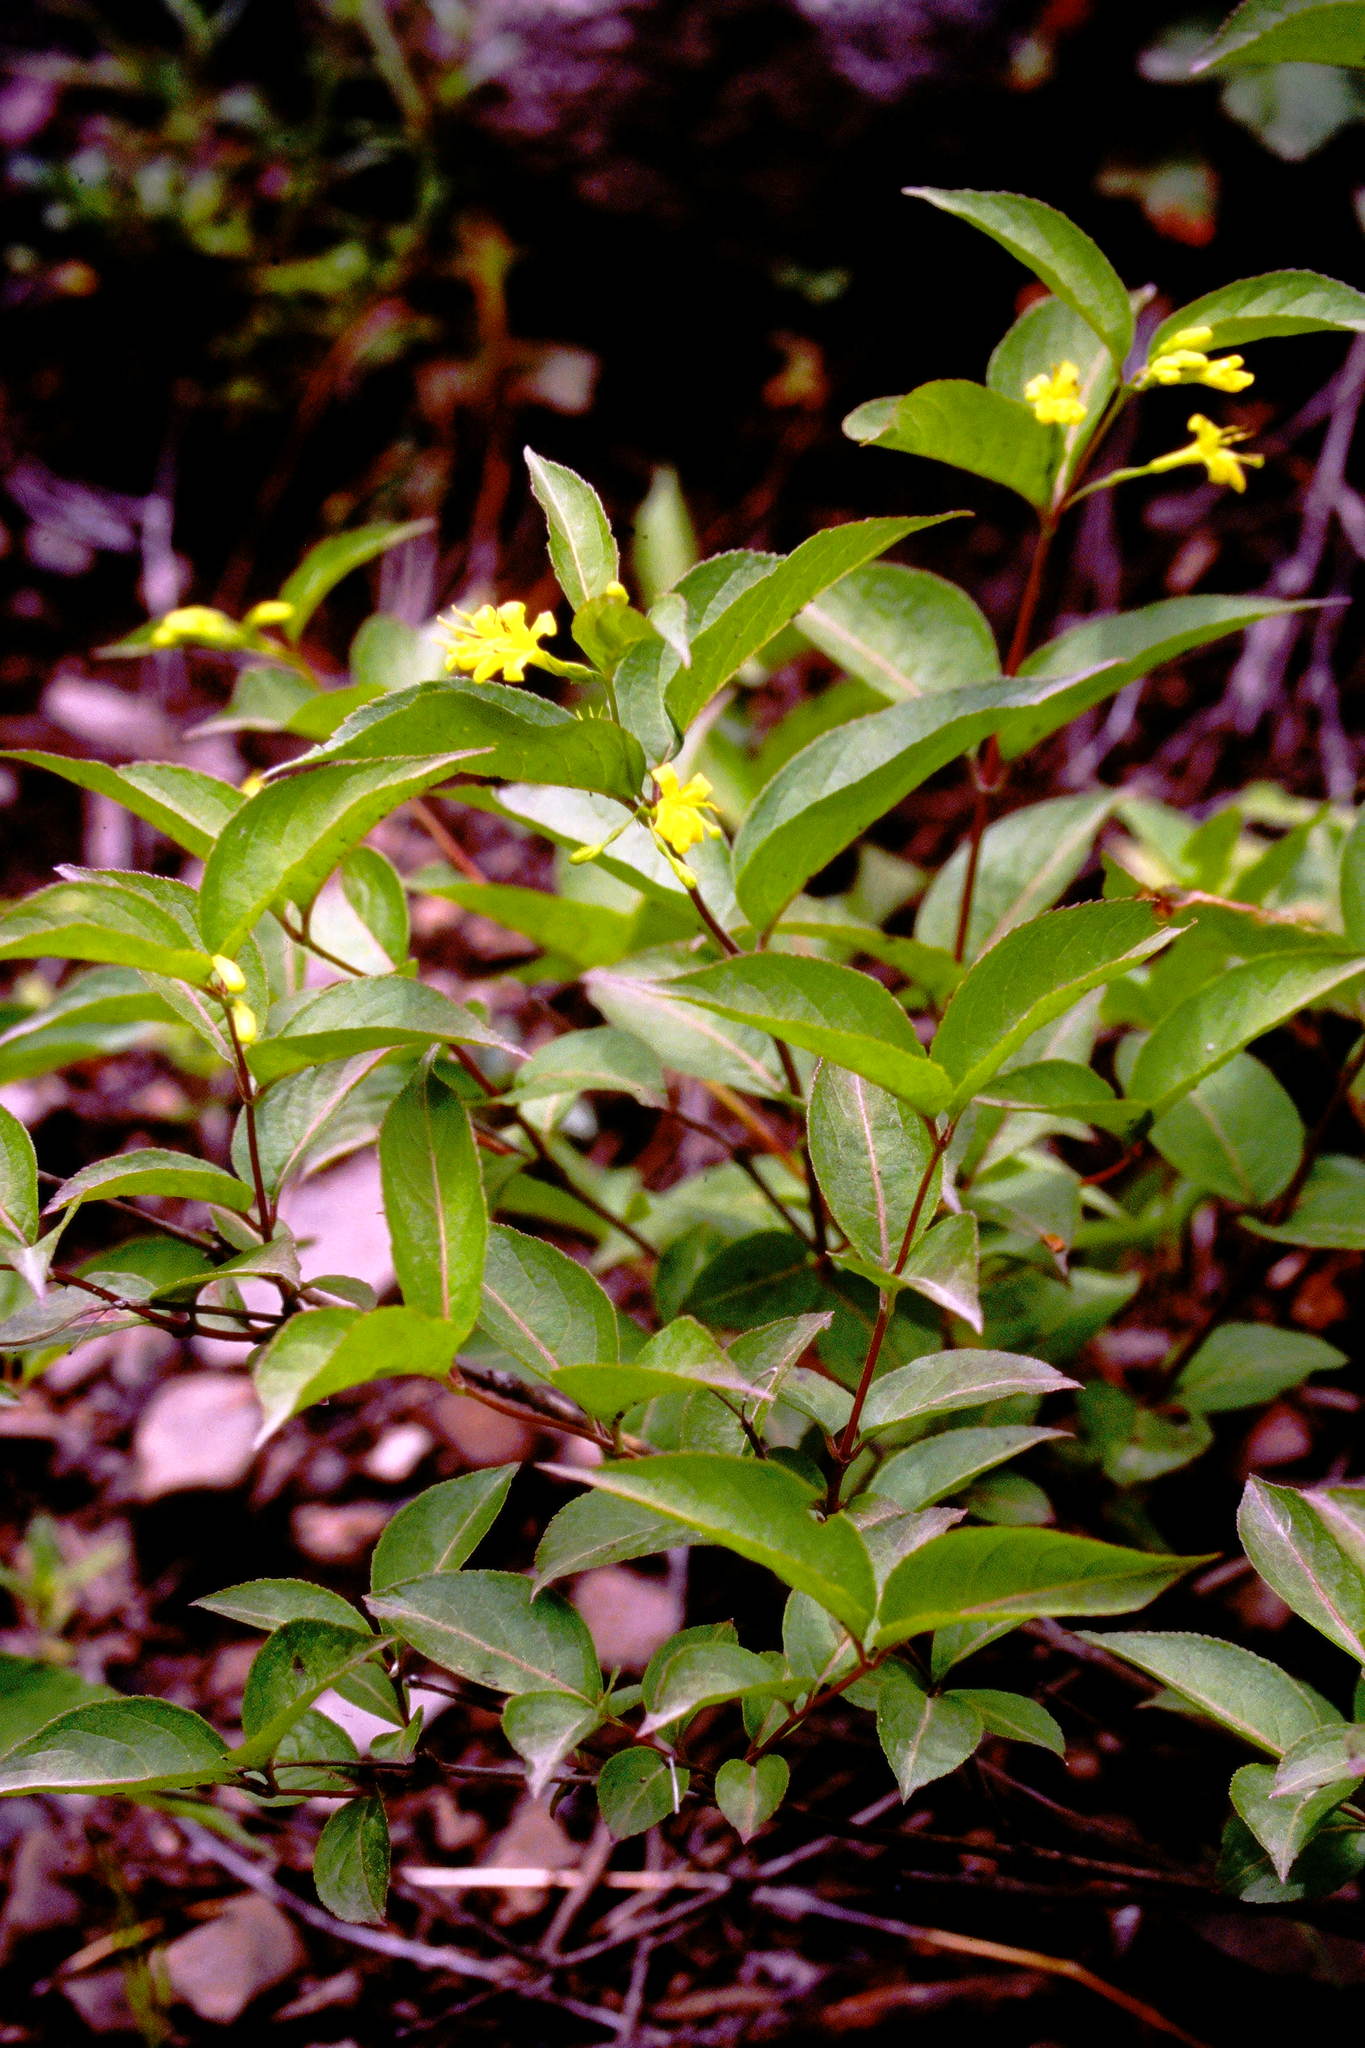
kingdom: Plantae
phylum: Tracheophyta
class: Magnoliopsida
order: Dipsacales
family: Caprifoliaceae
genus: Diervilla
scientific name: Diervilla lonicera
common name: Bush-honeysuckle
